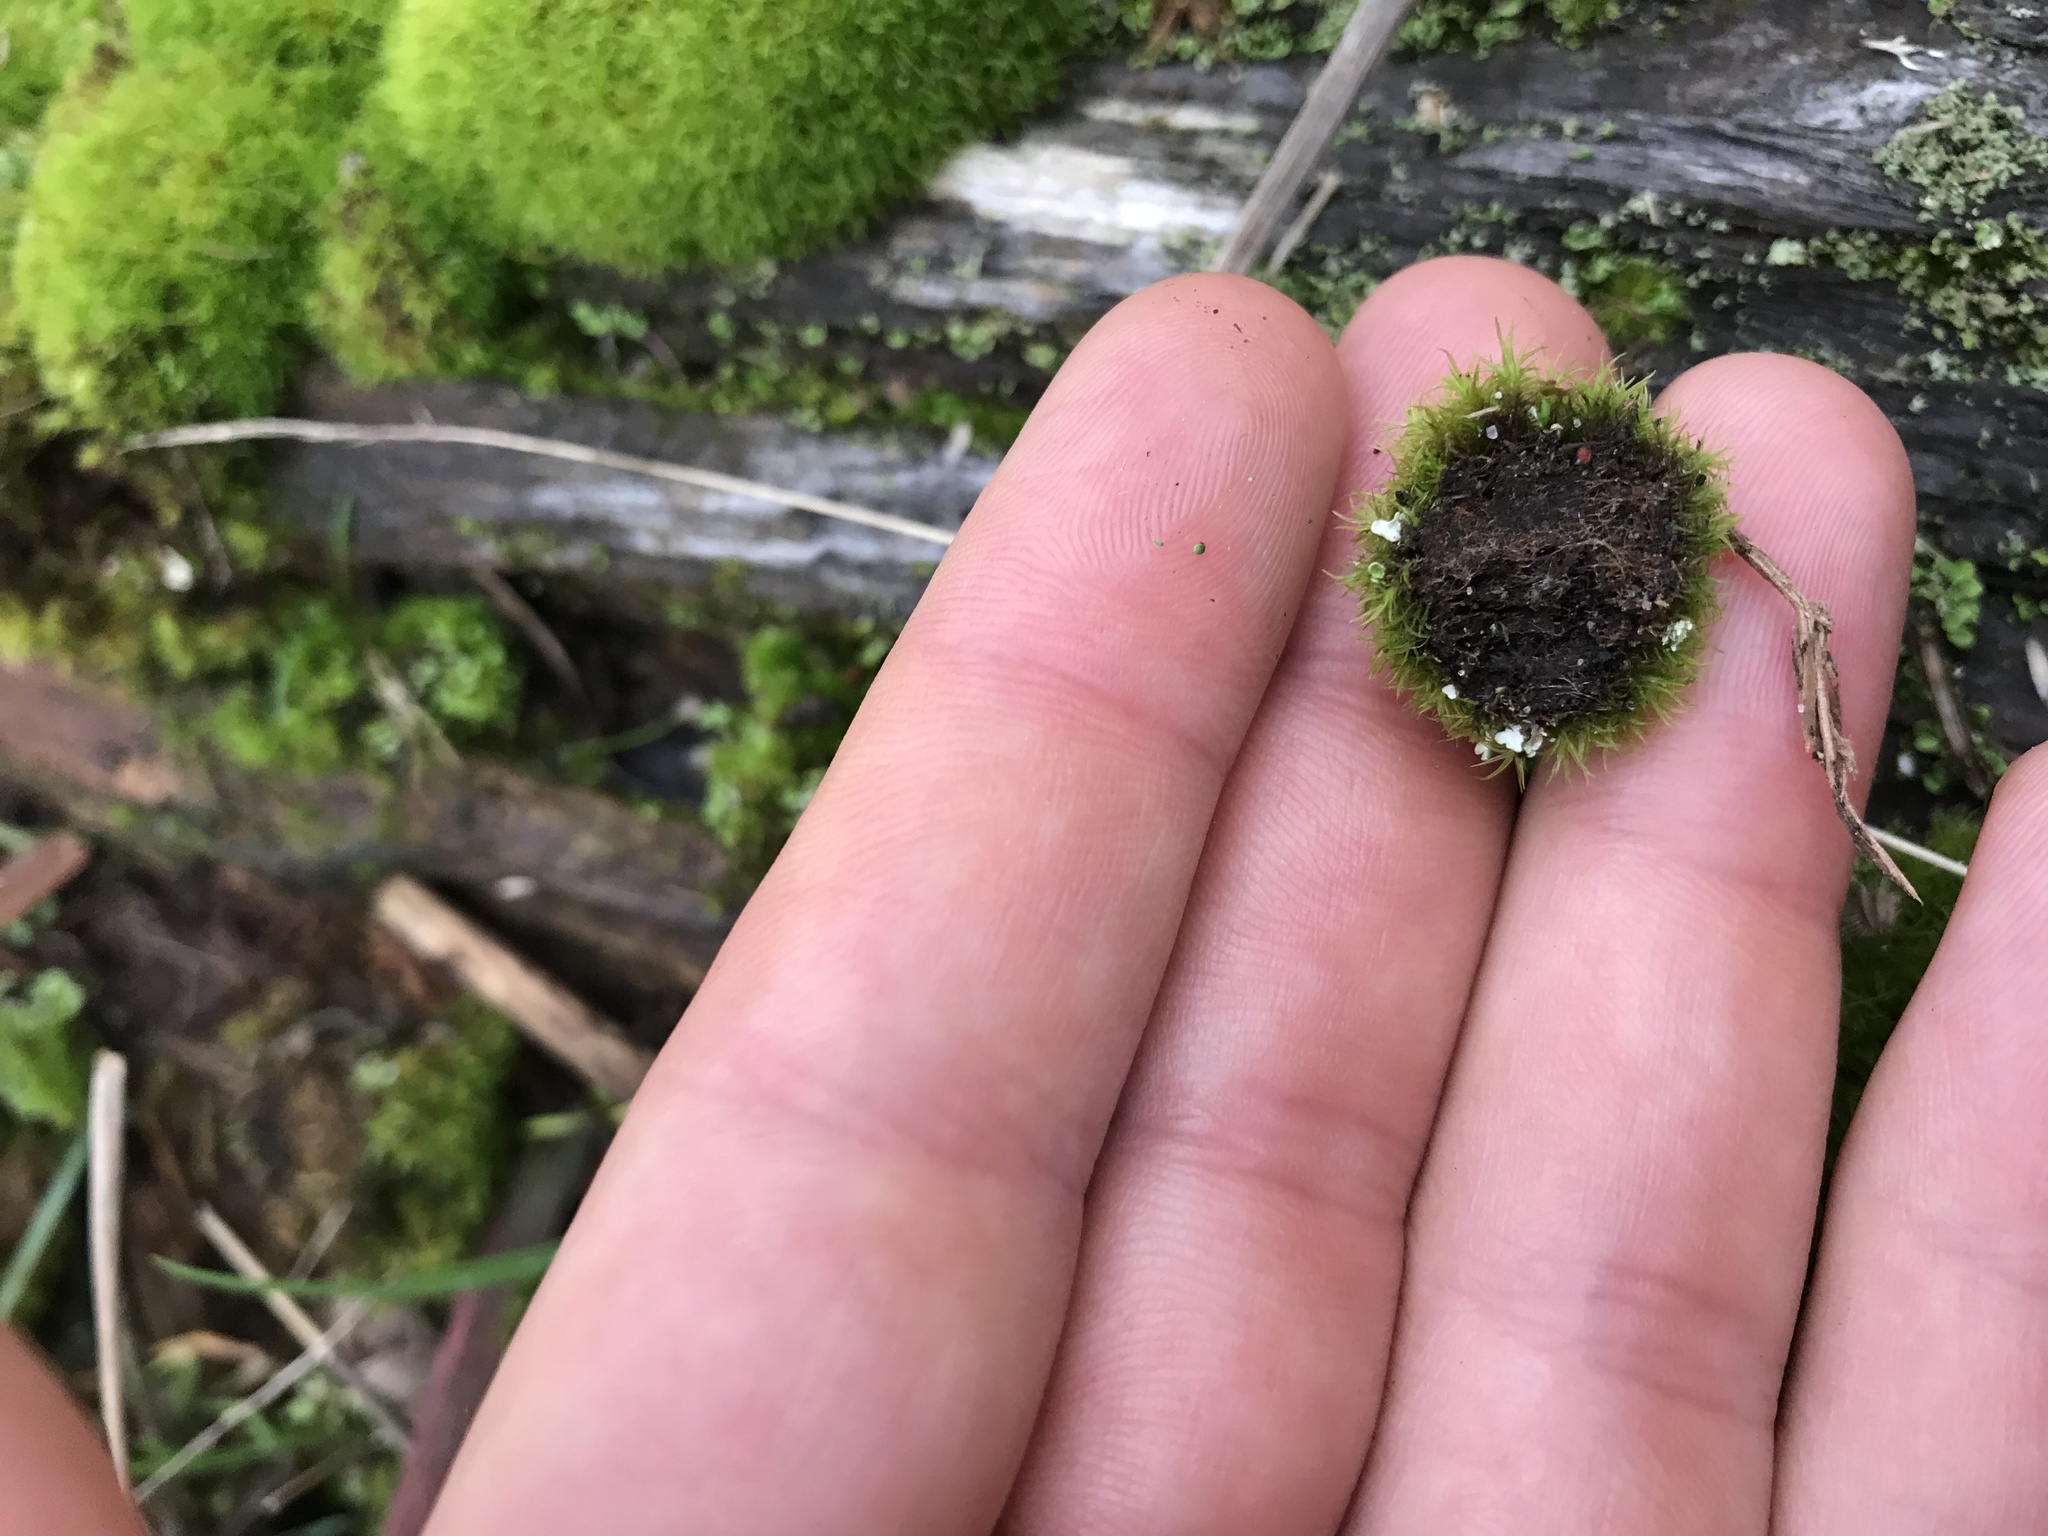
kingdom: Plantae
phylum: Bryophyta
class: Bryopsida
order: Dicranales
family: Rhabdoweisiaceae
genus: Dicranoweisia
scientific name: Dicranoweisia cirrata
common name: Common pincushion
